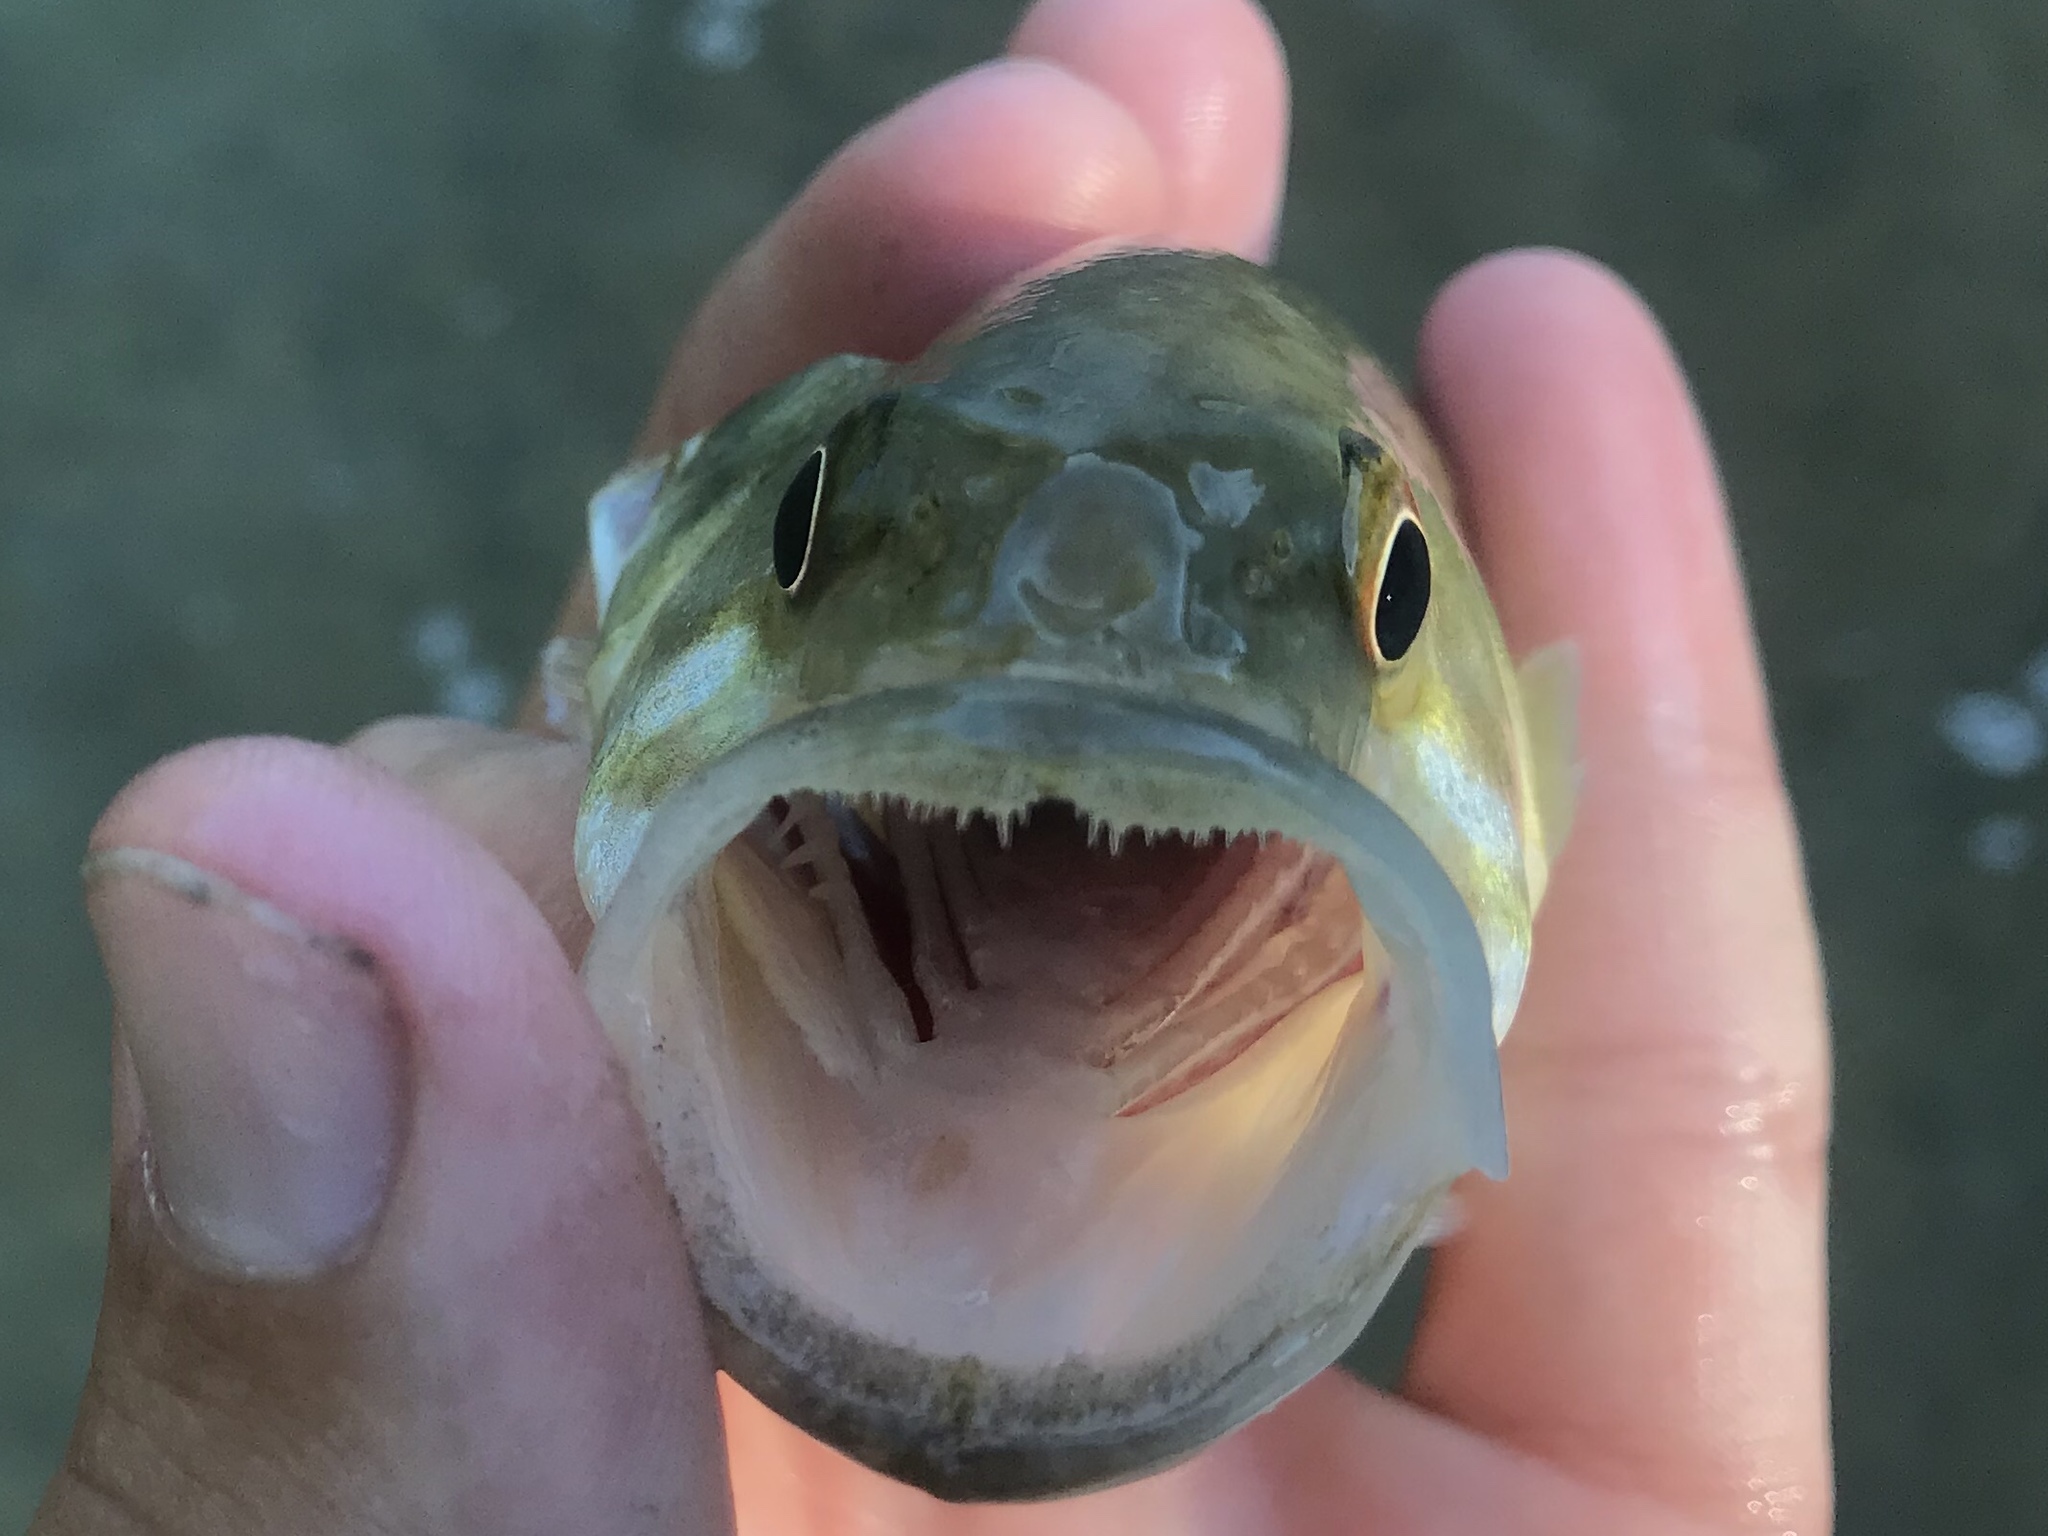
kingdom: Animalia
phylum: Chordata
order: Perciformes
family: Centrarchidae
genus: Micropterus
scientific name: Micropterus treculii
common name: Guadalupe bass
